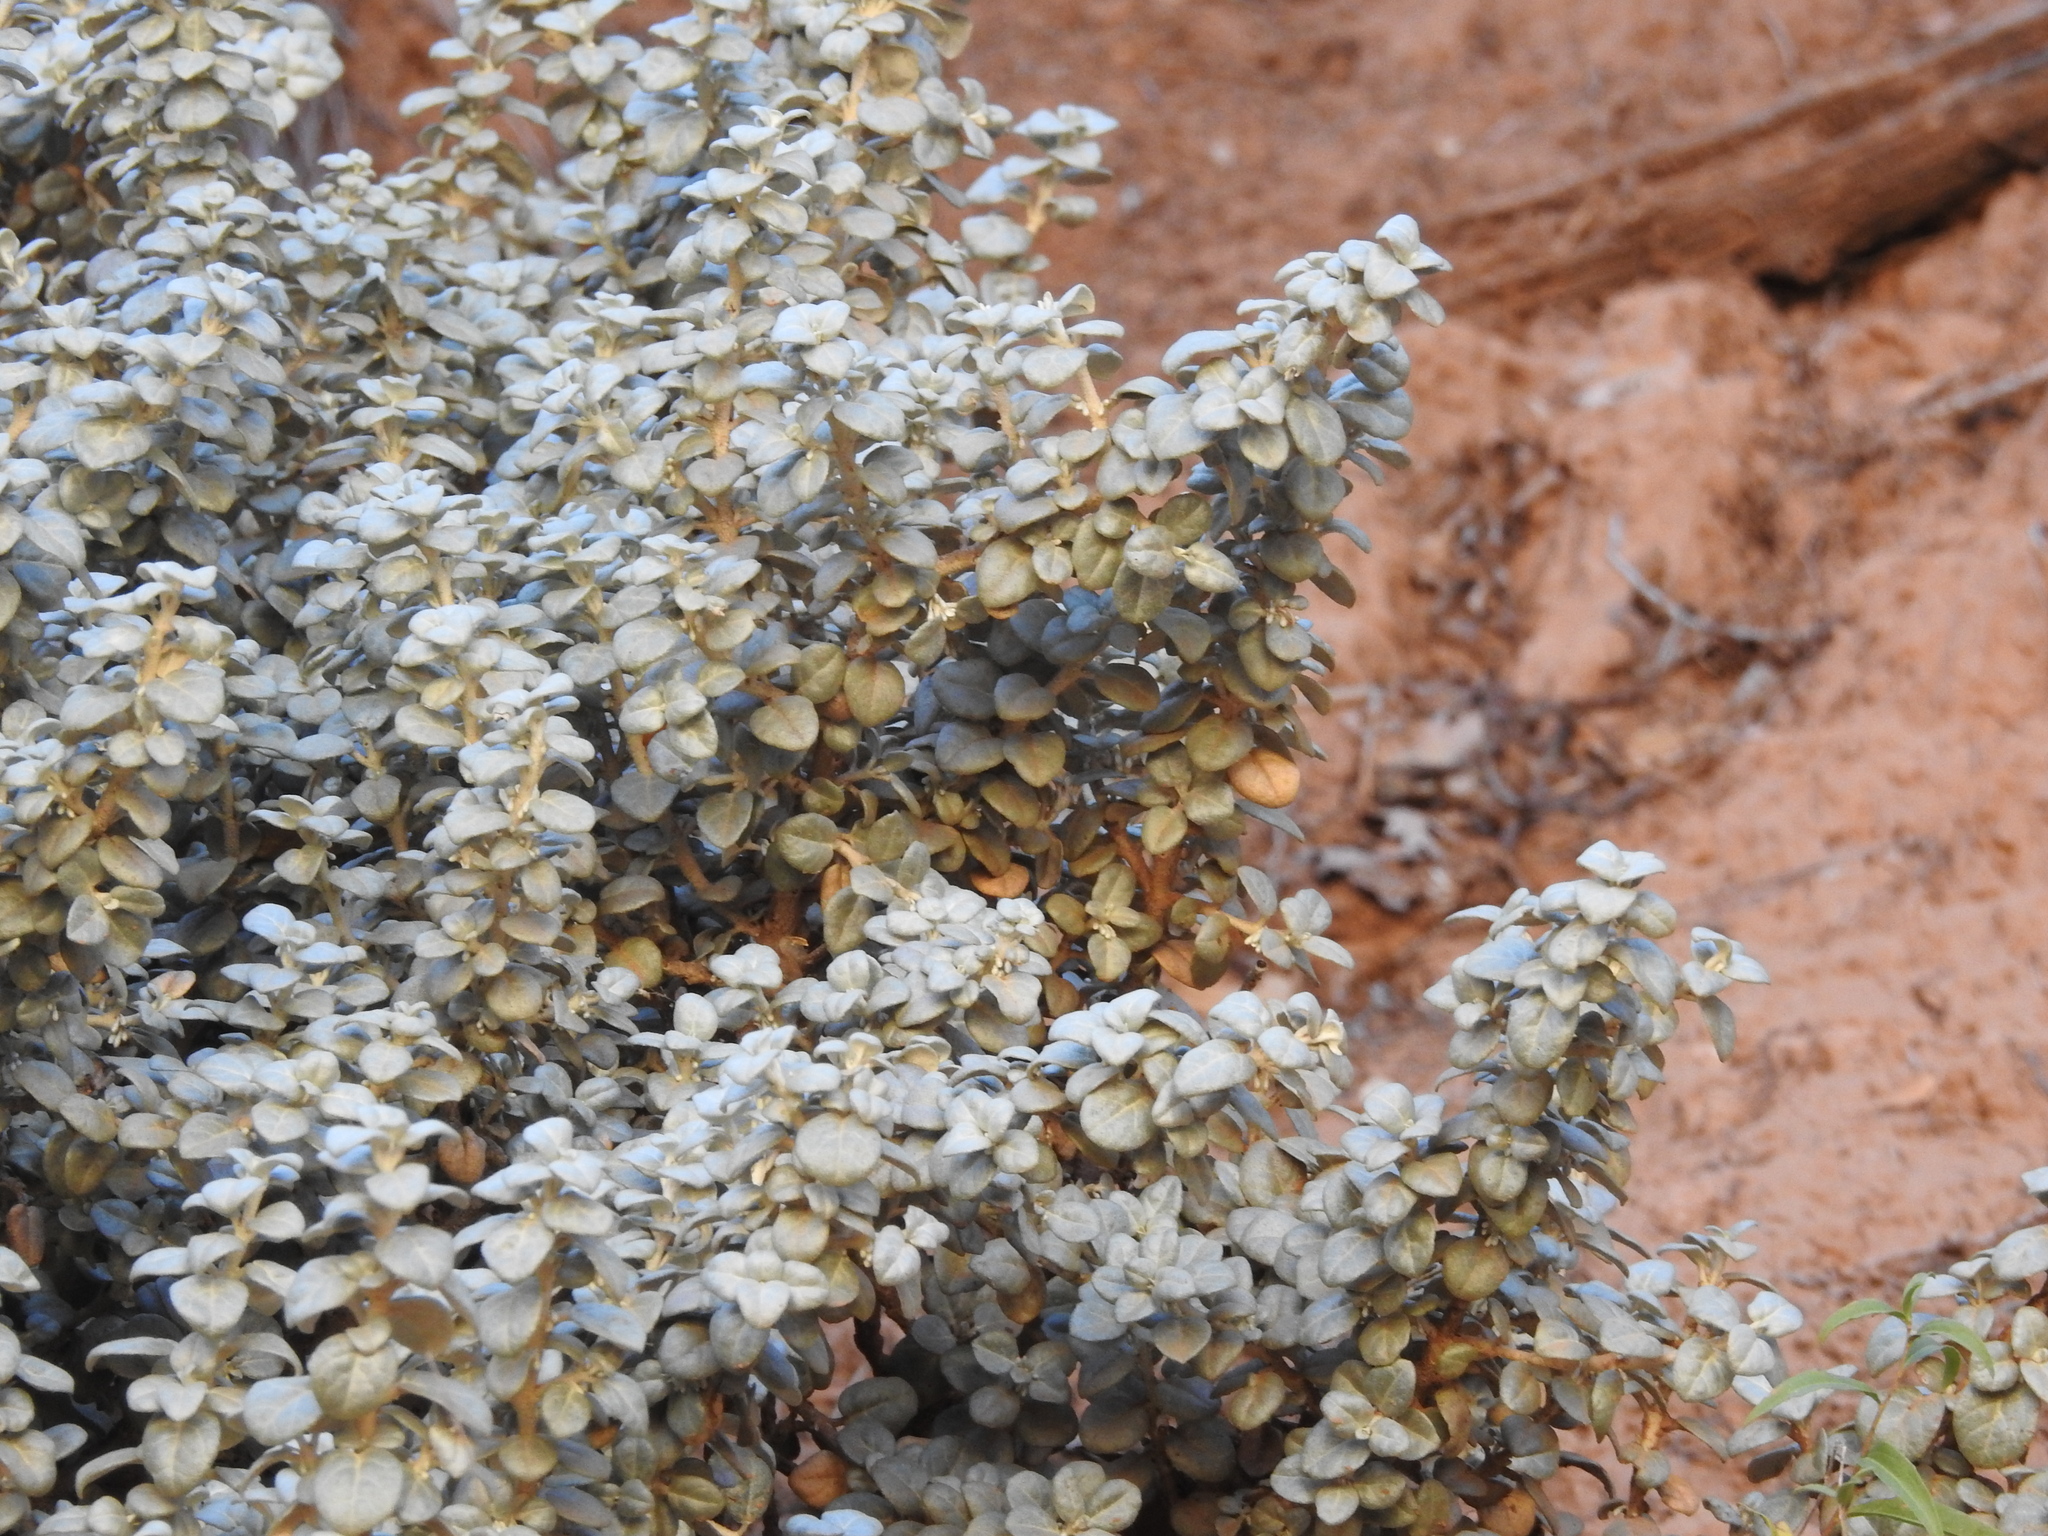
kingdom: Plantae
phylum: Tracheophyta
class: Magnoliopsida
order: Rosales
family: Elaeagnaceae
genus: Shepherdia
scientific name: Shepherdia rotundifolia
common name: Silverscale
